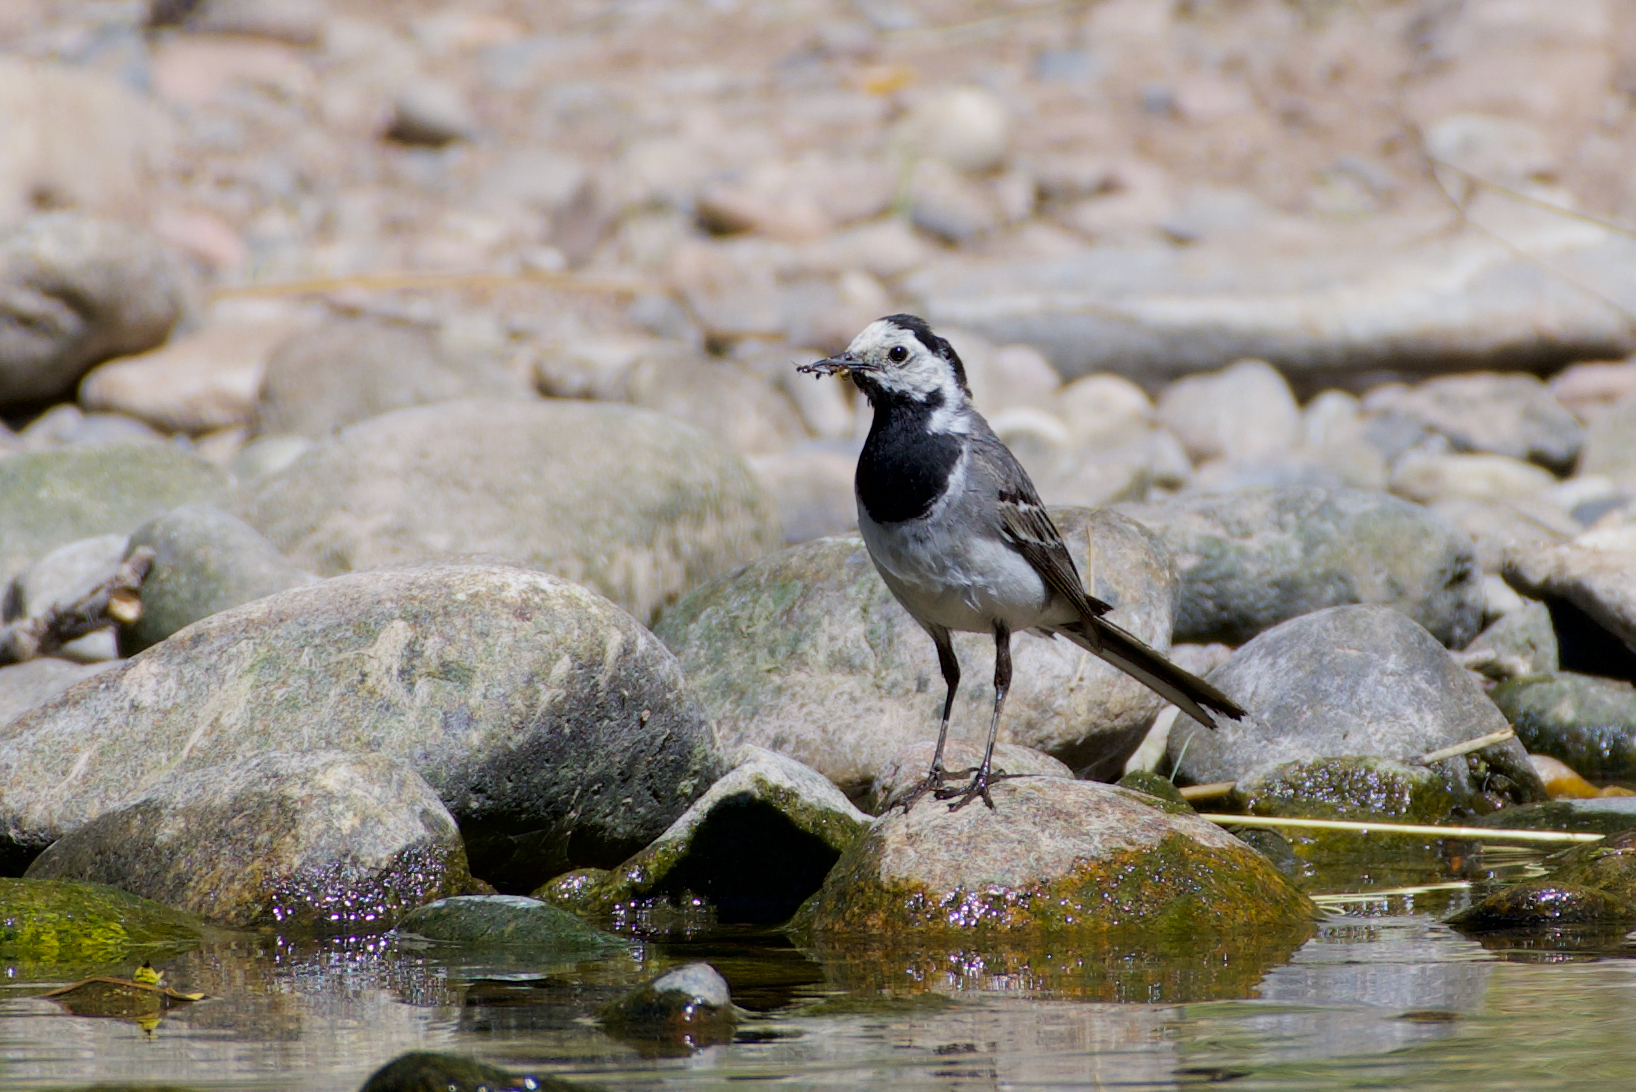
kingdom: Animalia
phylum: Chordata
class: Aves
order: Passeriformes
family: Motacillidae
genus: Motacilla
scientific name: Motacilla alba
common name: White wagtail
